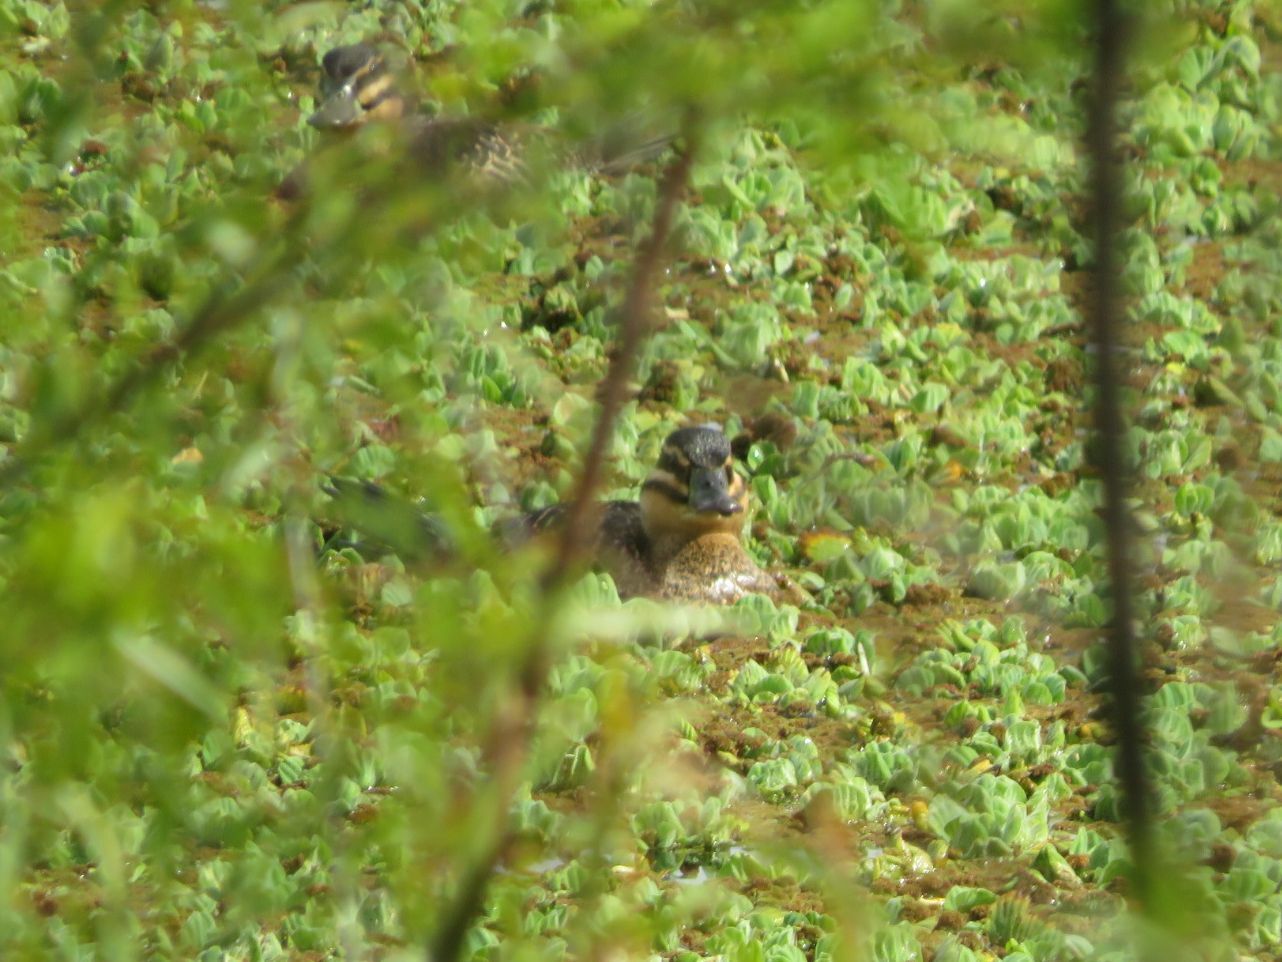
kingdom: Animalia
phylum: Chordata
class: Aves
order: Anseriformes
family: Anatidae
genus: Nomonyx
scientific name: Nomonyx dominicus
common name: Masked duck
